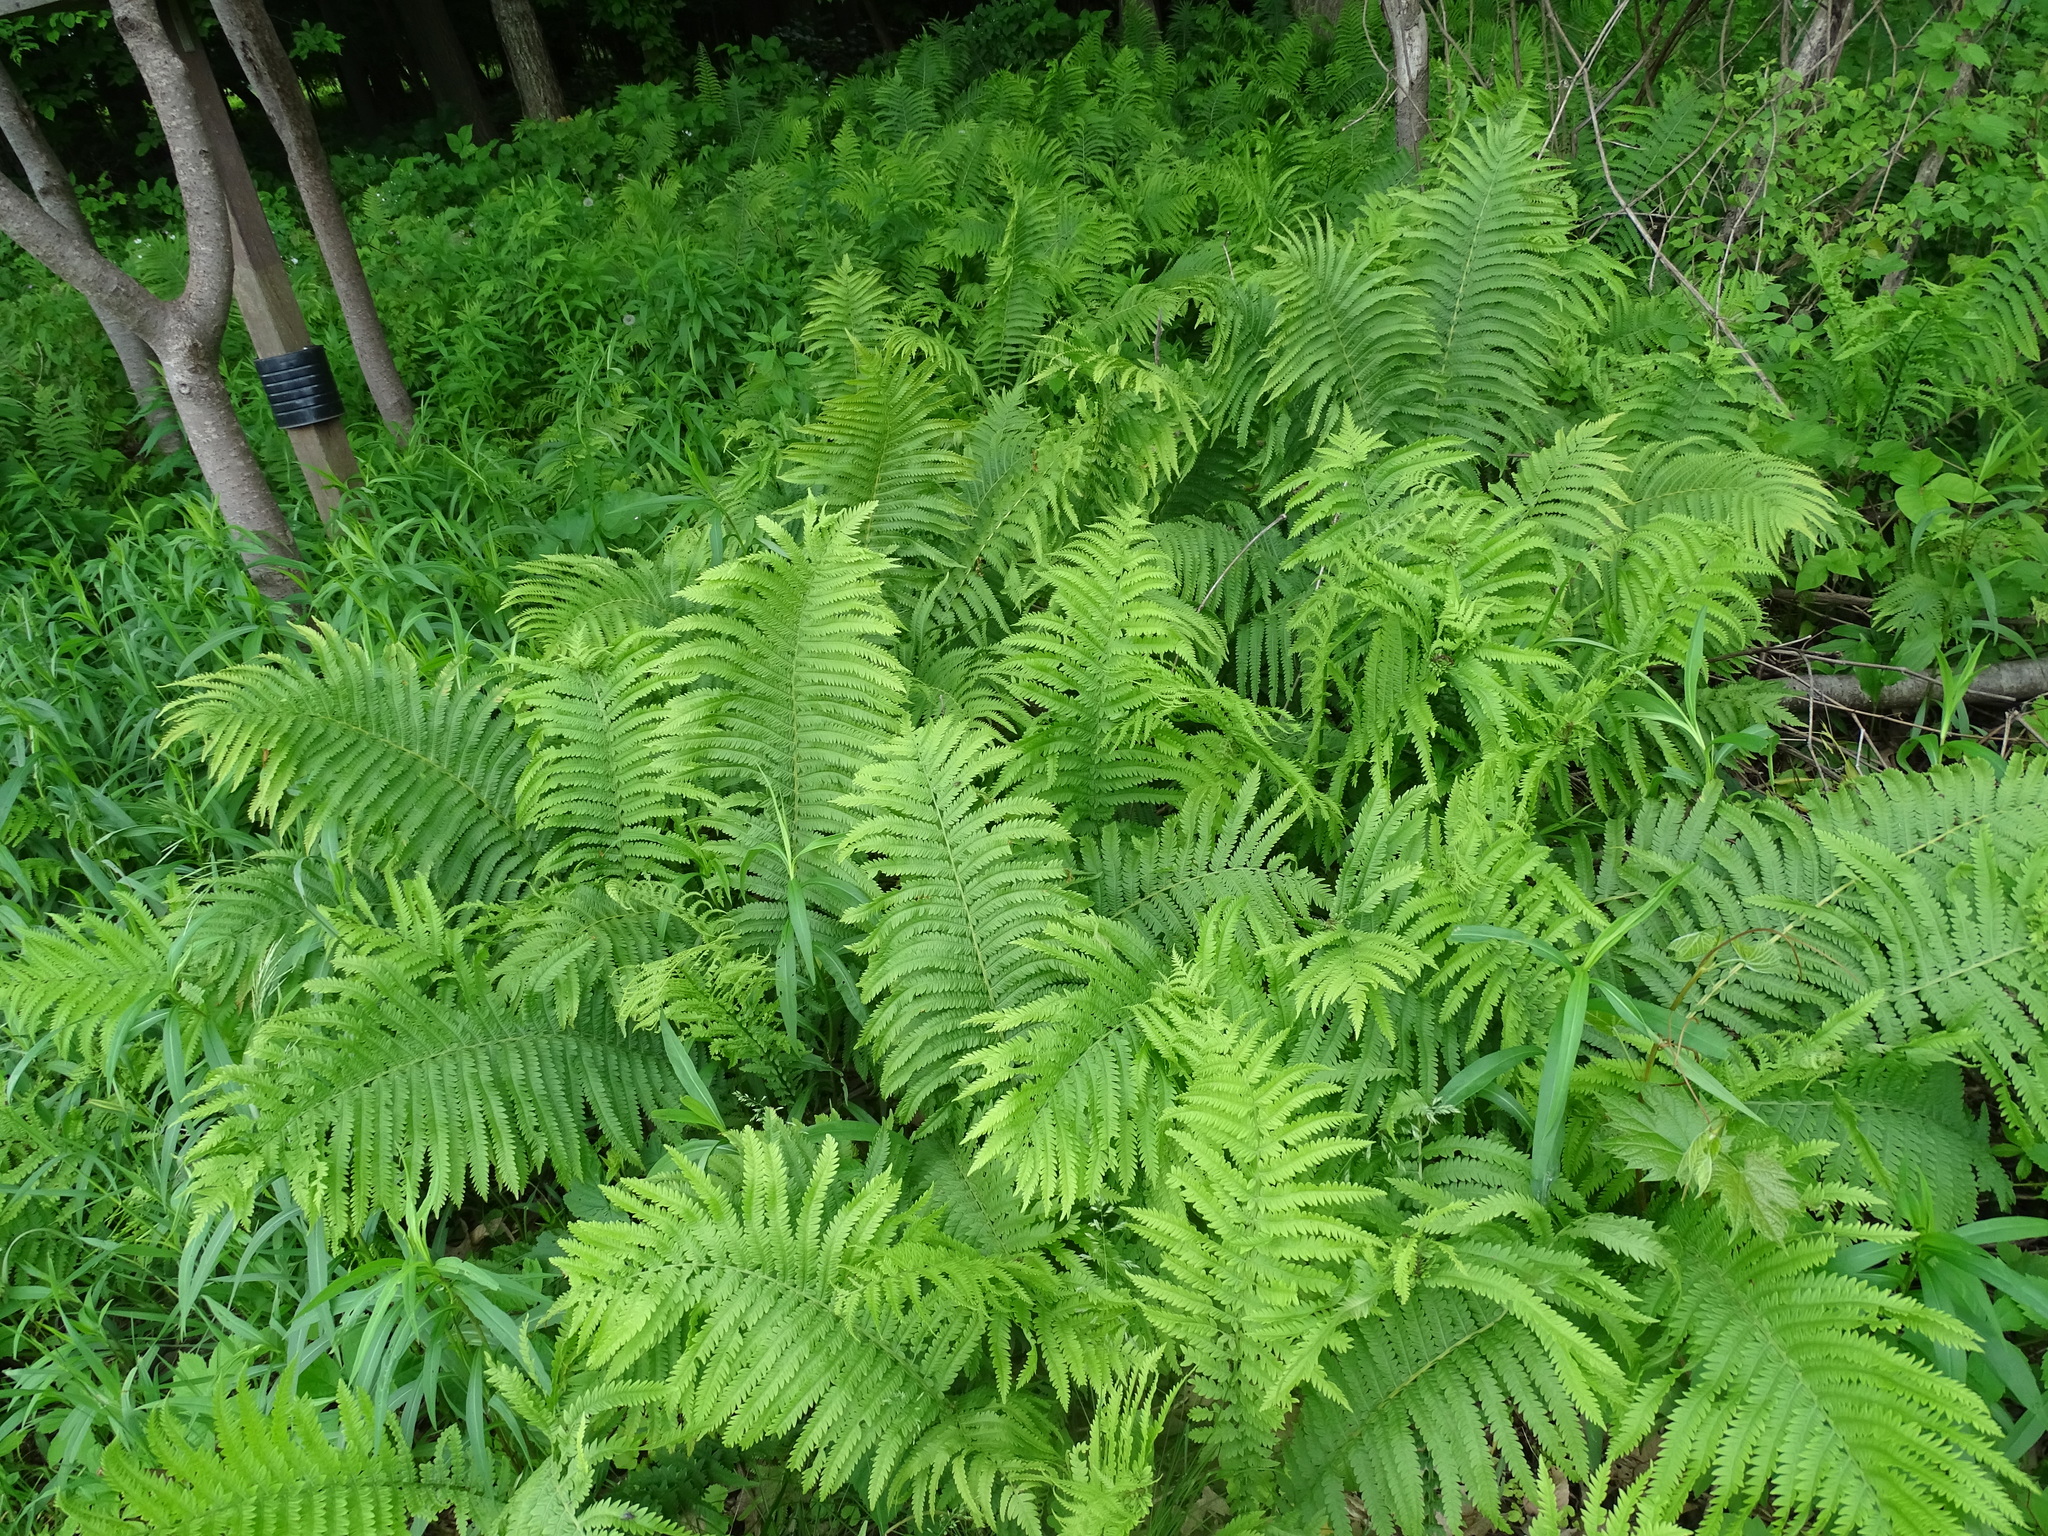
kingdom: Plantae
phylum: Tracheophyta
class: Polypodiopsida
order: Polypodiales
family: Onocleaceae
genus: Matteuccia
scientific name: Matteuccia struthiopteris
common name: Ostrich fern
